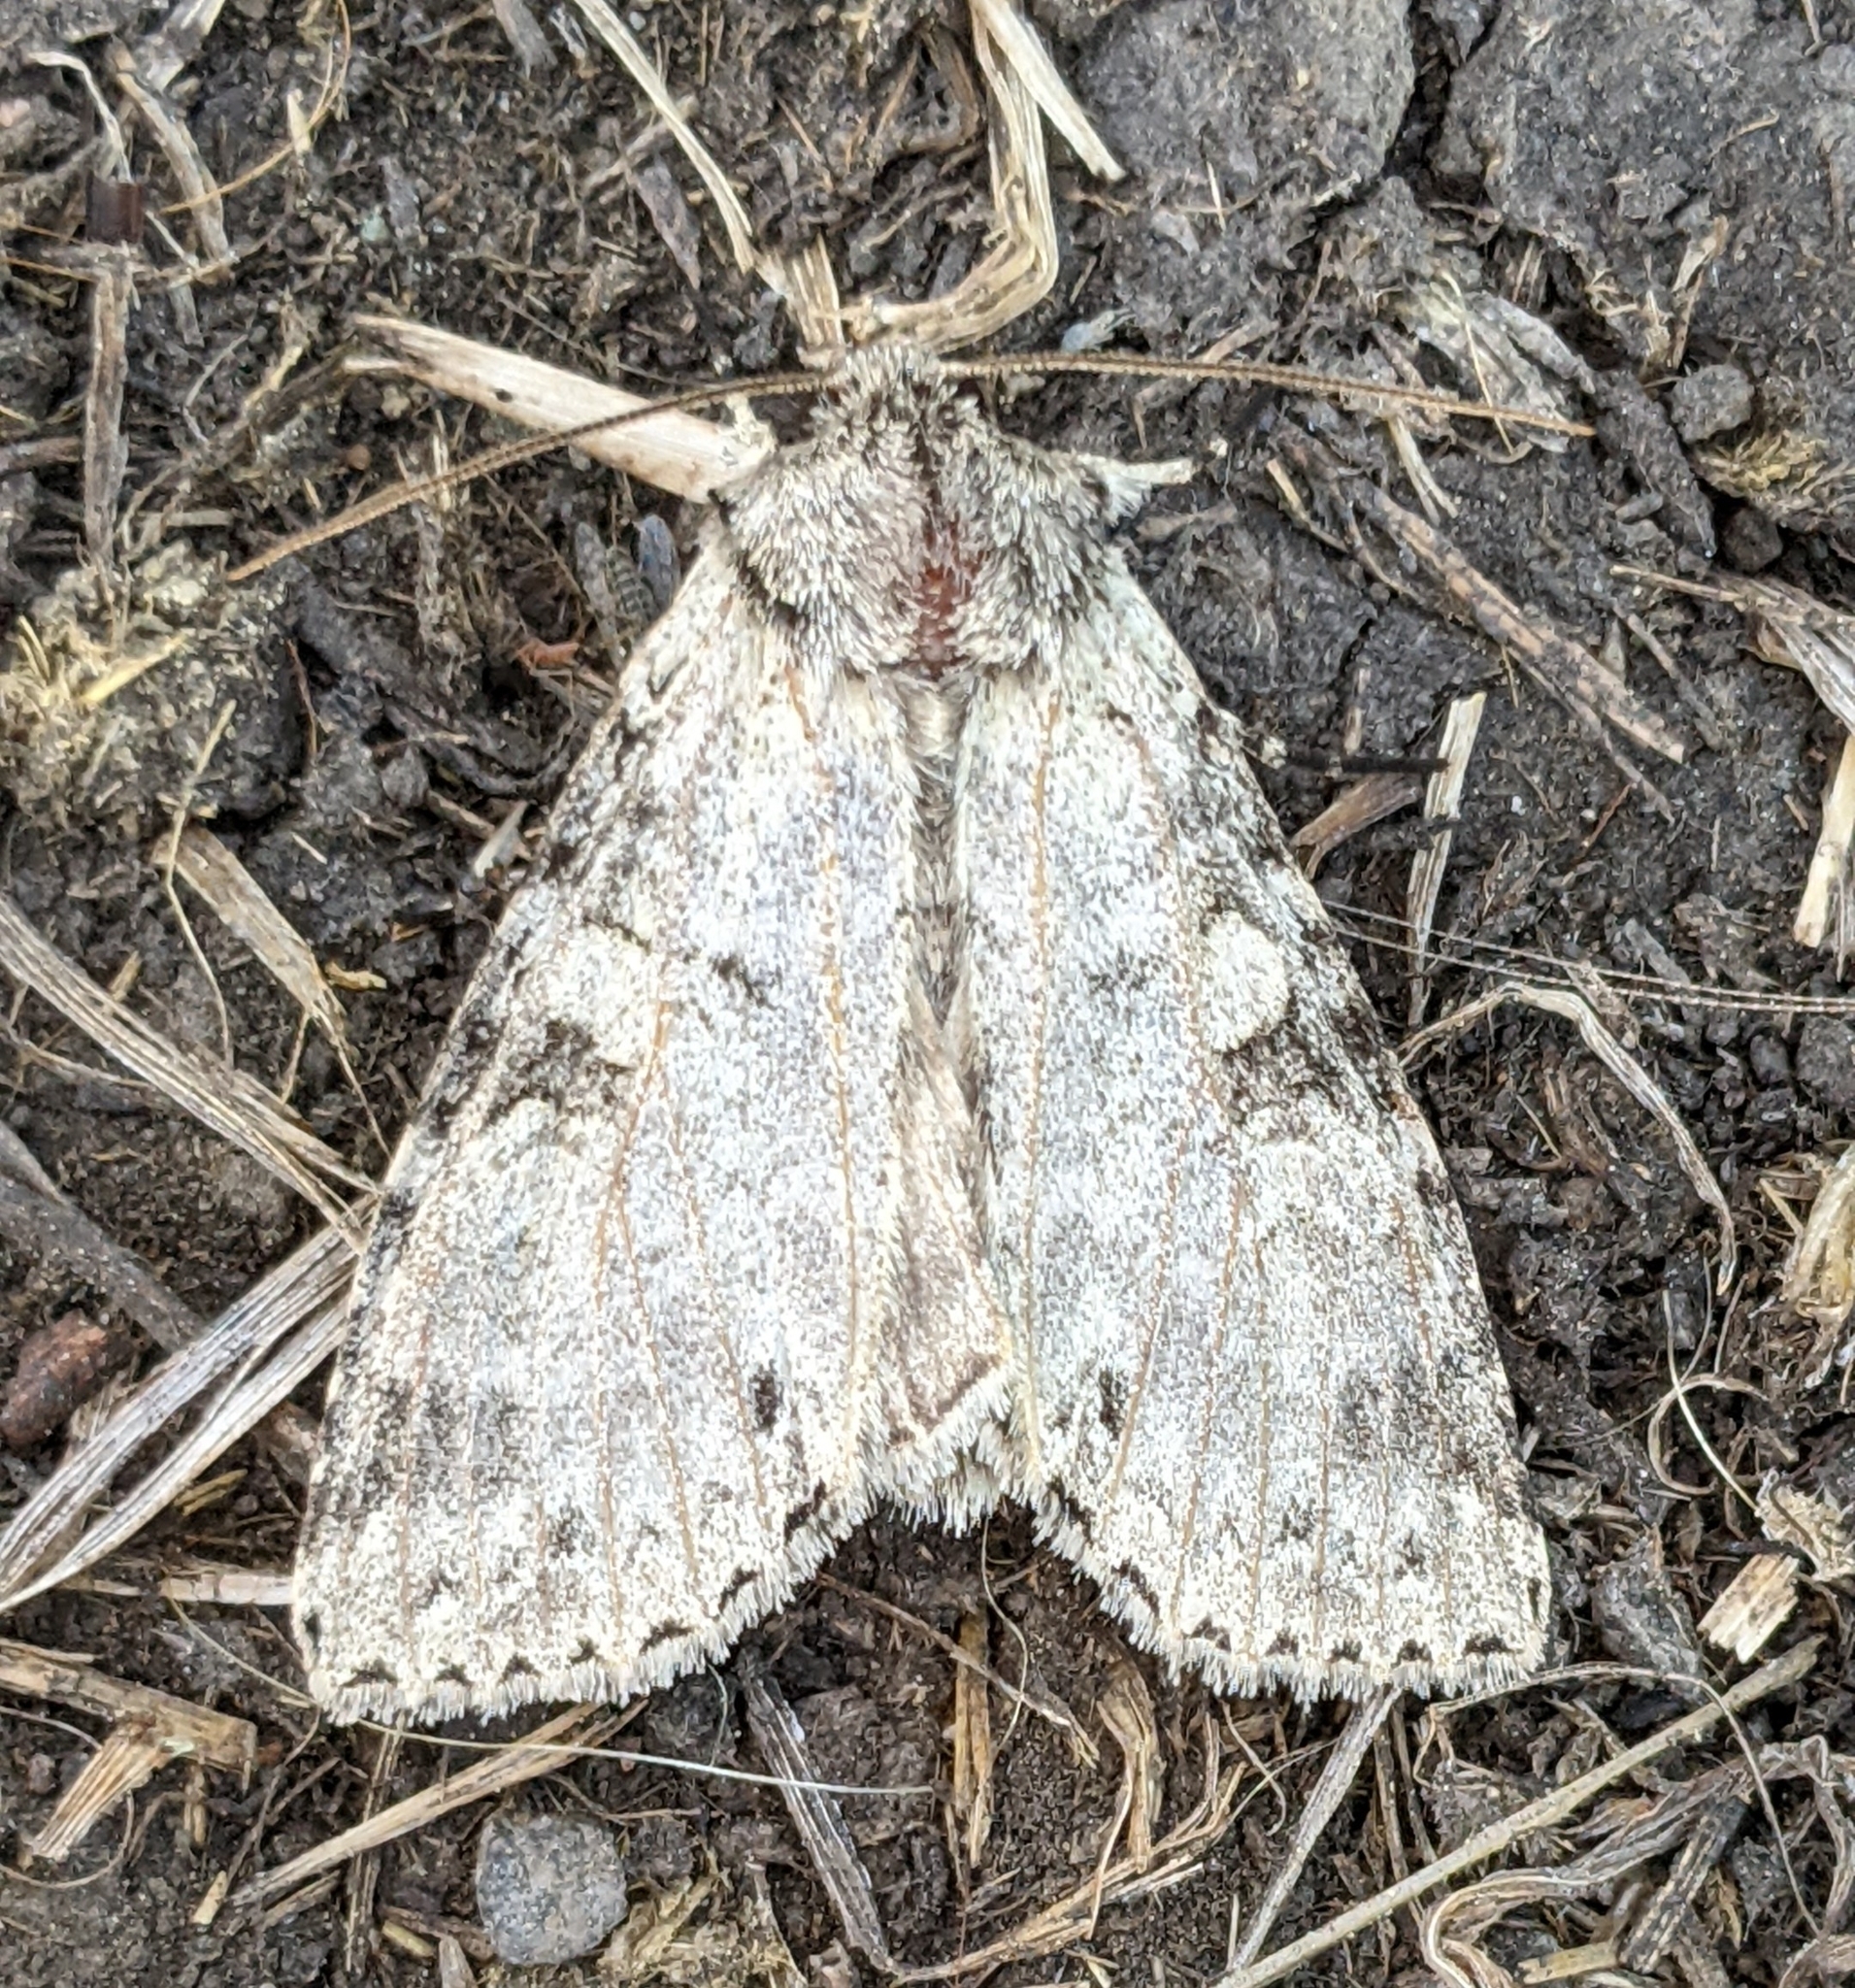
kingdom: Animalia
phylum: Arthropoda
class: Insecta
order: Lepidoptera
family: Noctuidae
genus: Polia
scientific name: Polia nimbosa
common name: Stormy arches
